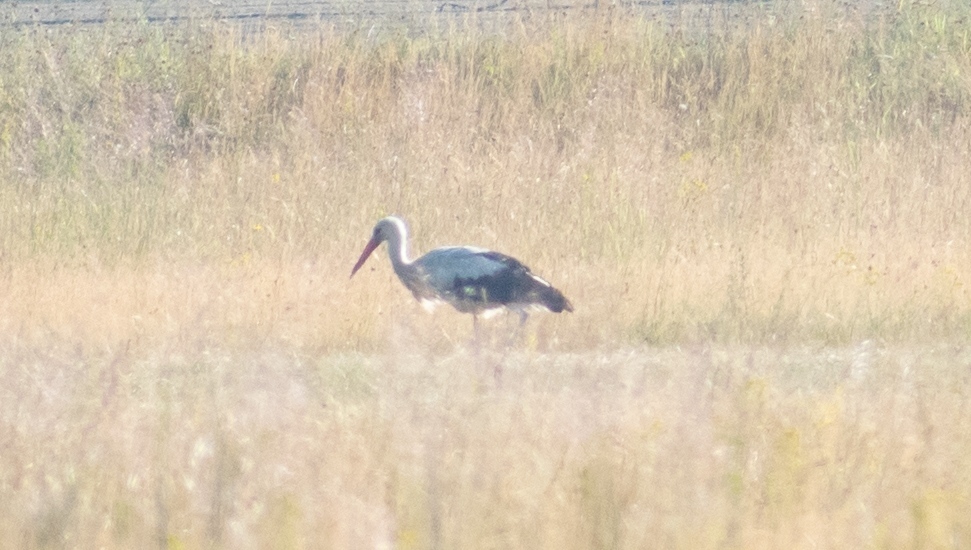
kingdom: Animalia
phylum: Chordata
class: Aves
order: Ciconiiformes
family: Ciconiidae
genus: Ciconia
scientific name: Ciconia ciconia
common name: White stork
